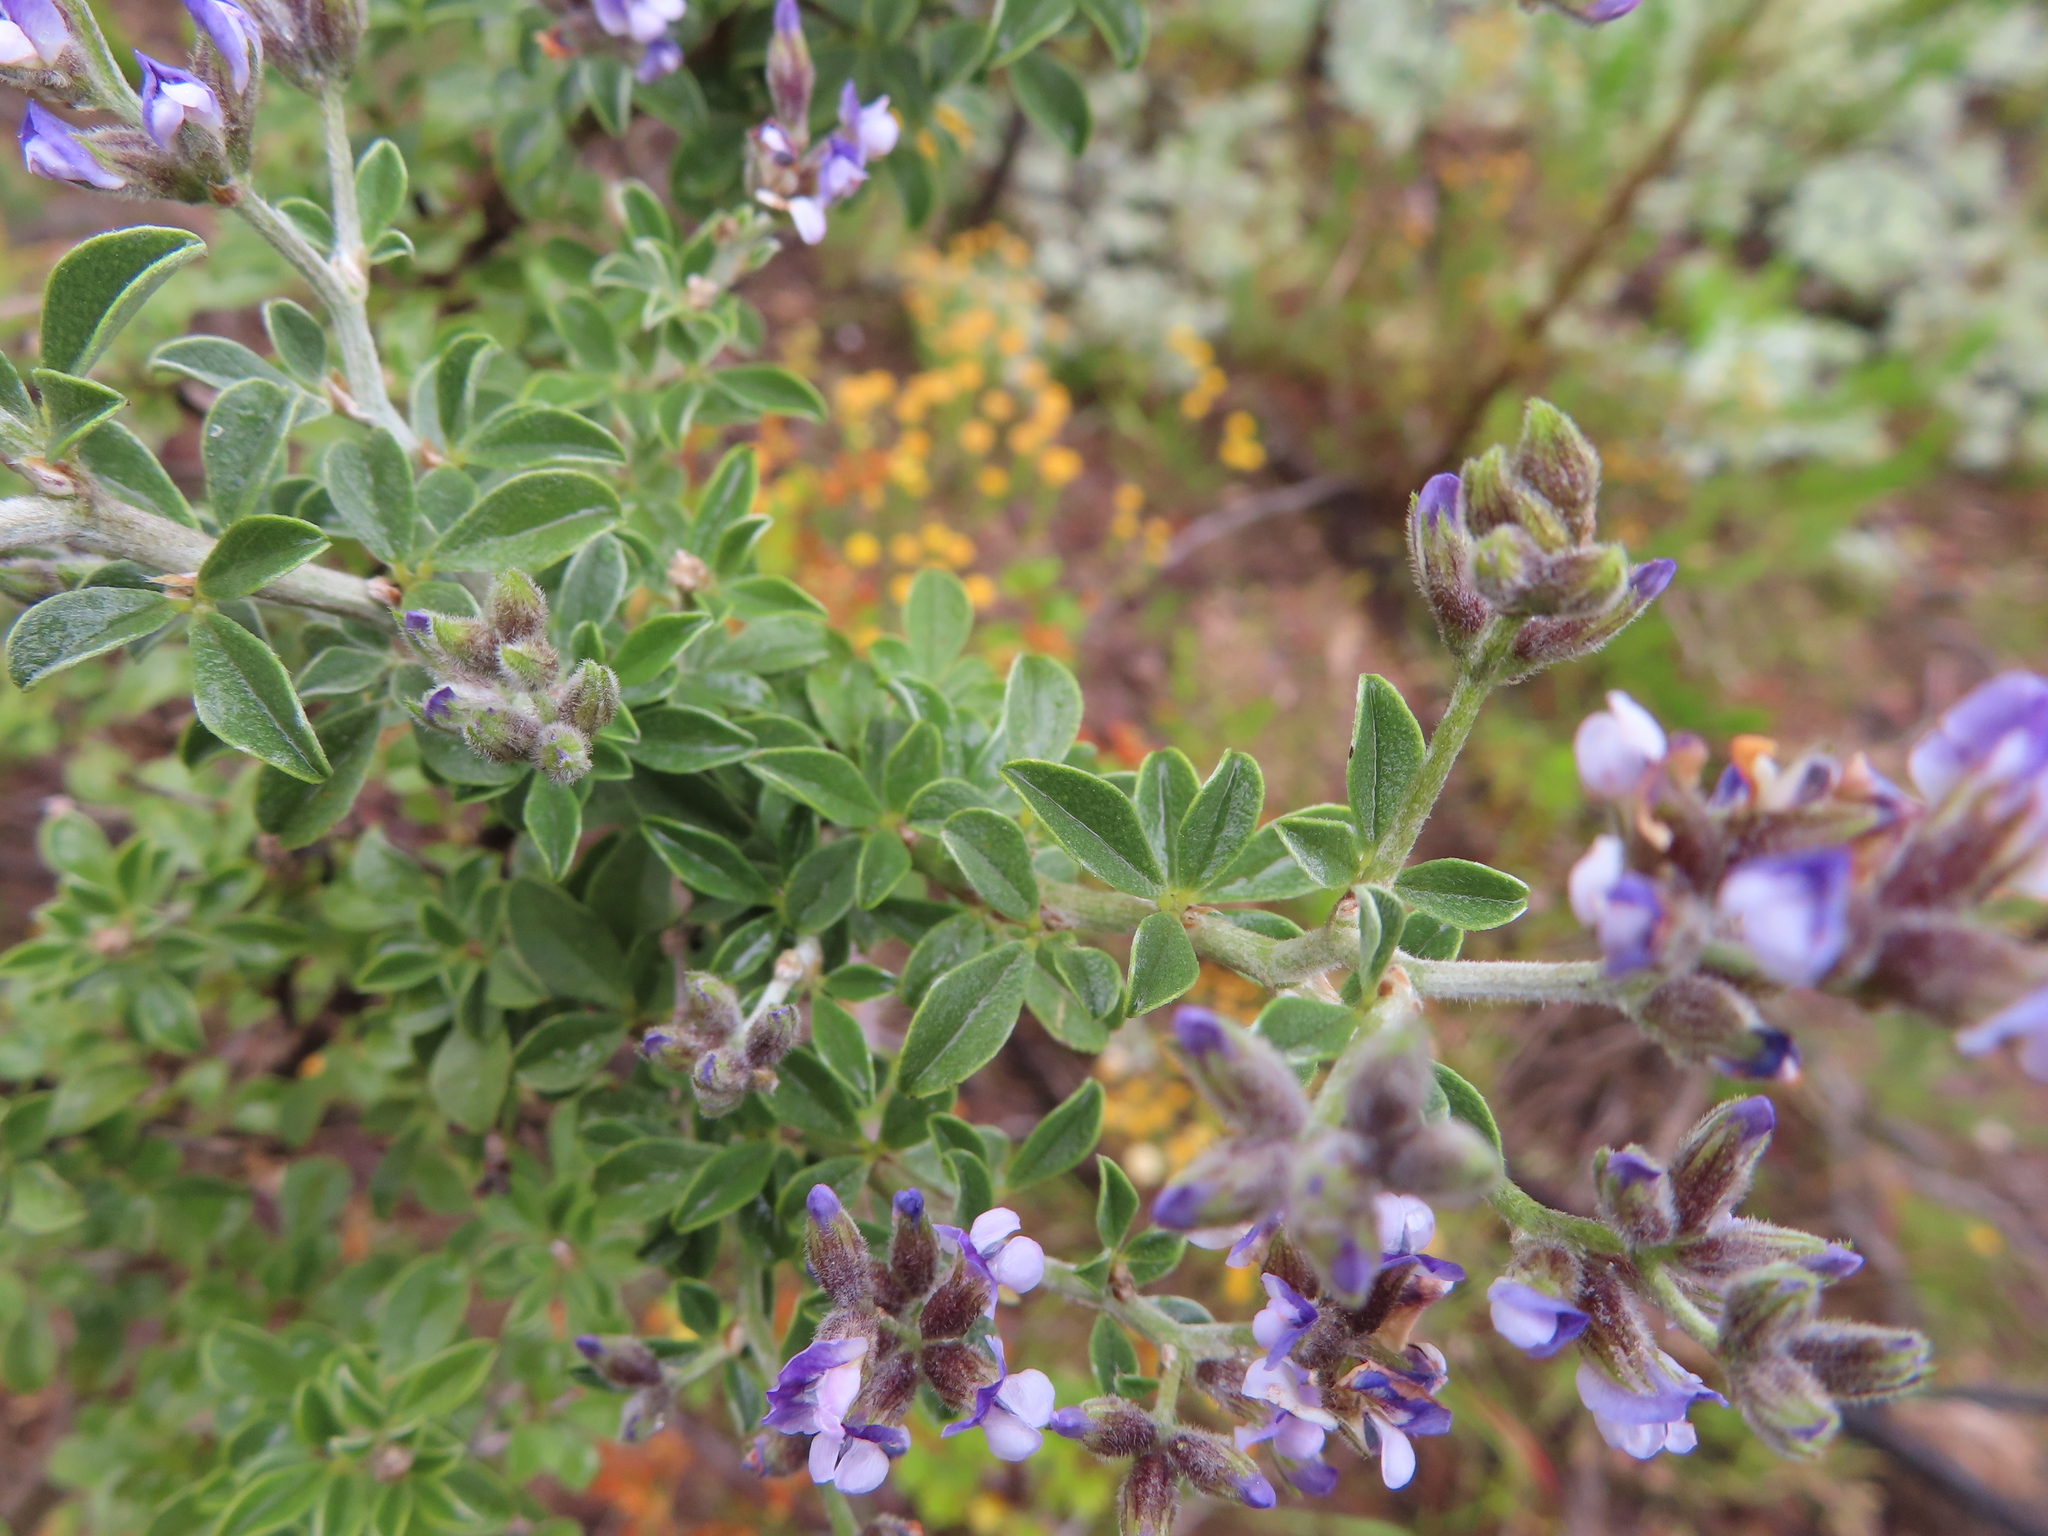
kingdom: Plantae
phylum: Tracheophyta
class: Magnoliopsida
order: Fabales
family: Fabaceae
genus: Psoralea
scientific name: Psoralea hirta
